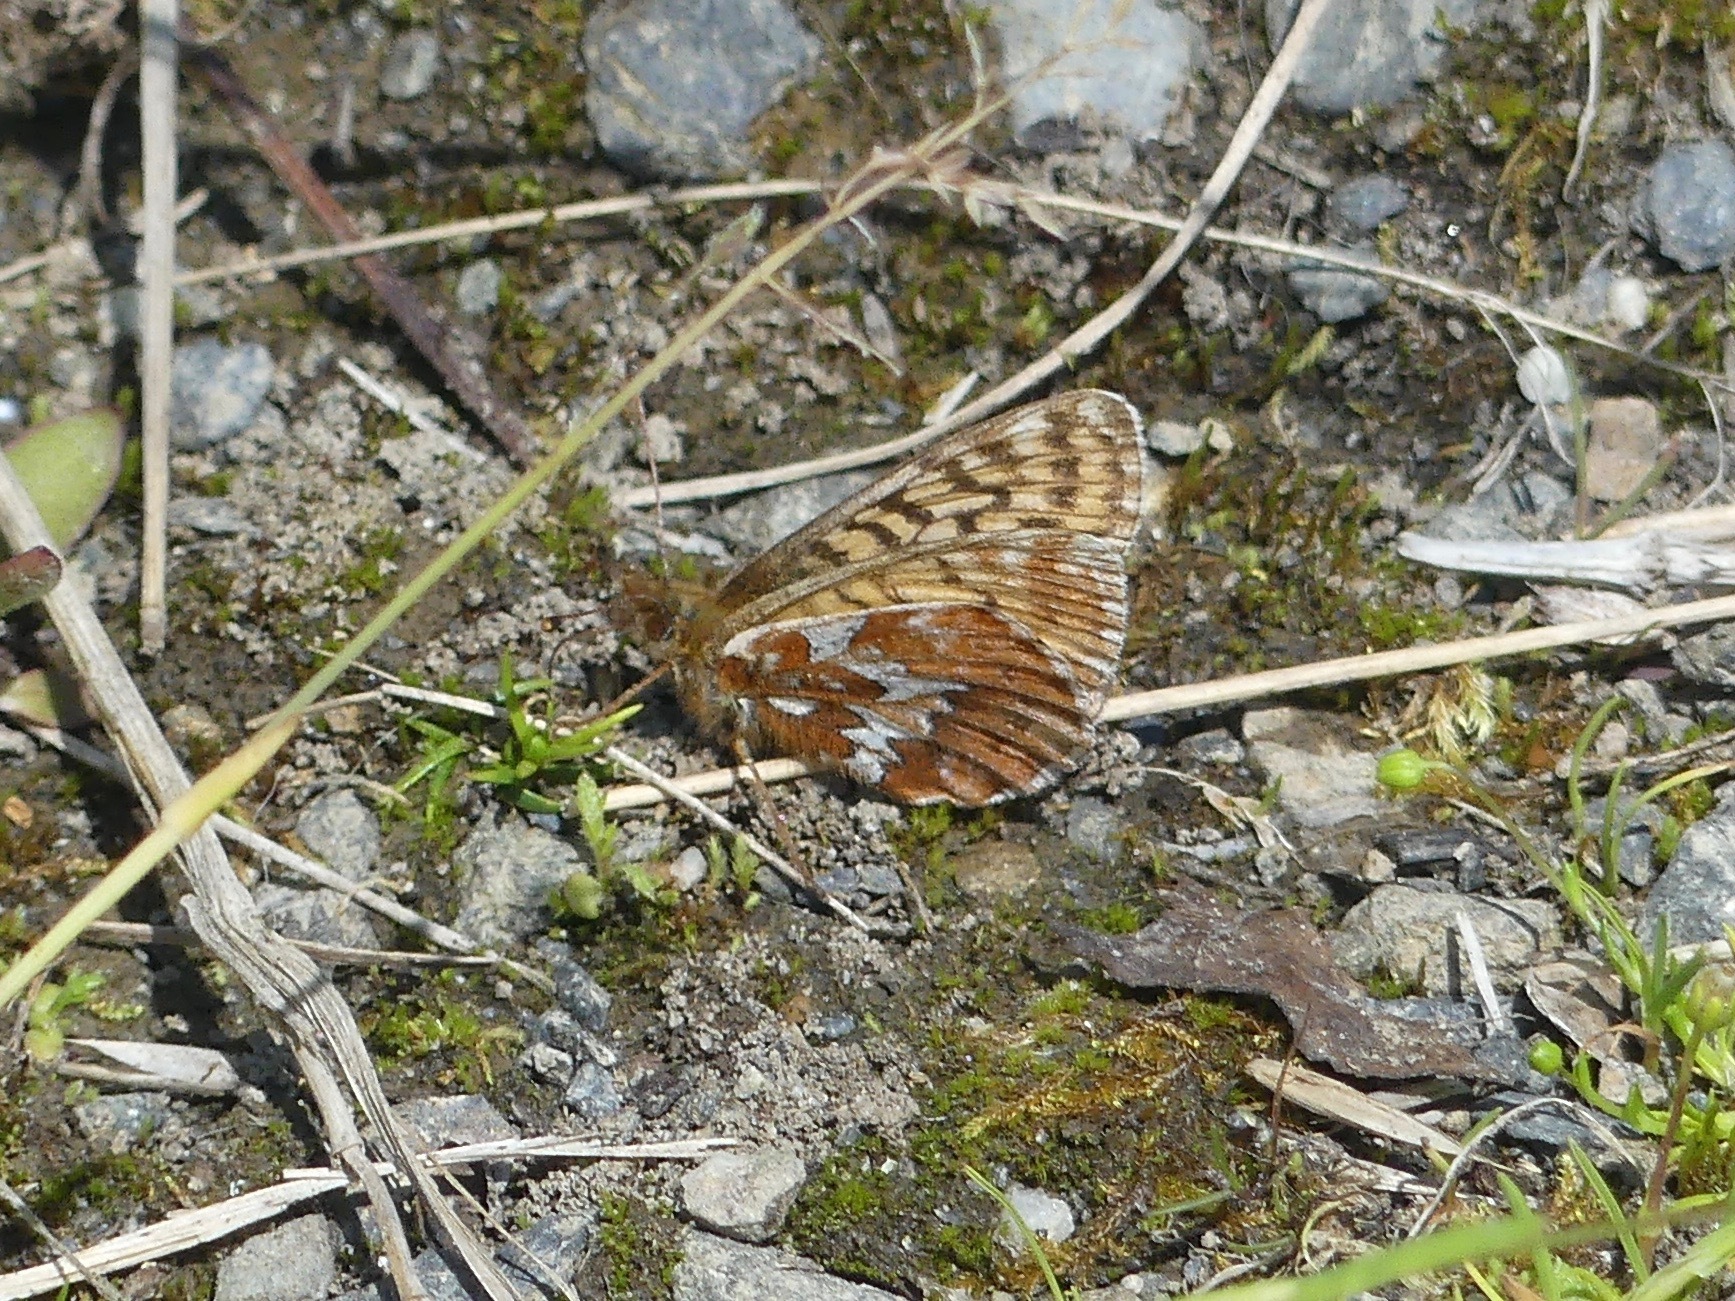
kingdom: Animalia
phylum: Arthropoda
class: Insecta
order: Lepidoptera
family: Nymphalidae
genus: Boloria
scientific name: Boloria chariclea
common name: Arctic fritillary
